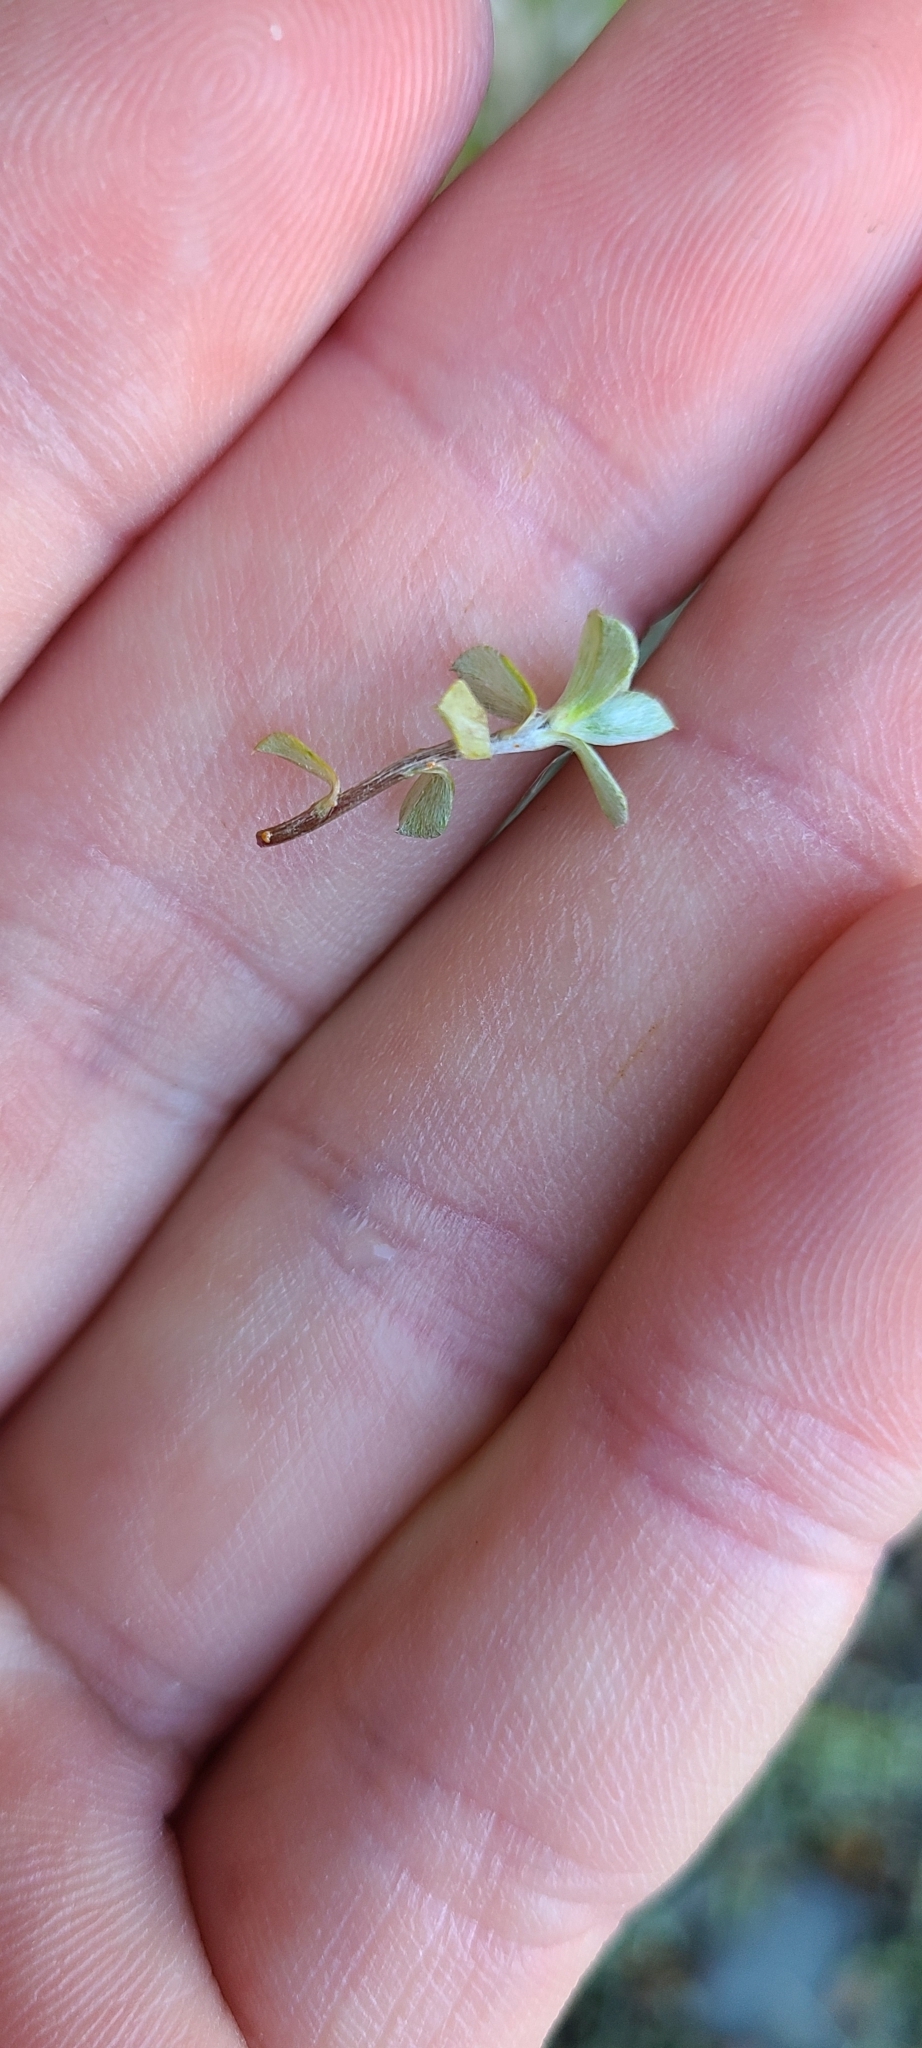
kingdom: Plantae
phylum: Tracheophyta
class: Magnoliopsida
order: Asterales
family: Asteraceae
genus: Raoulia
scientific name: Raoulia tenuicaulis
